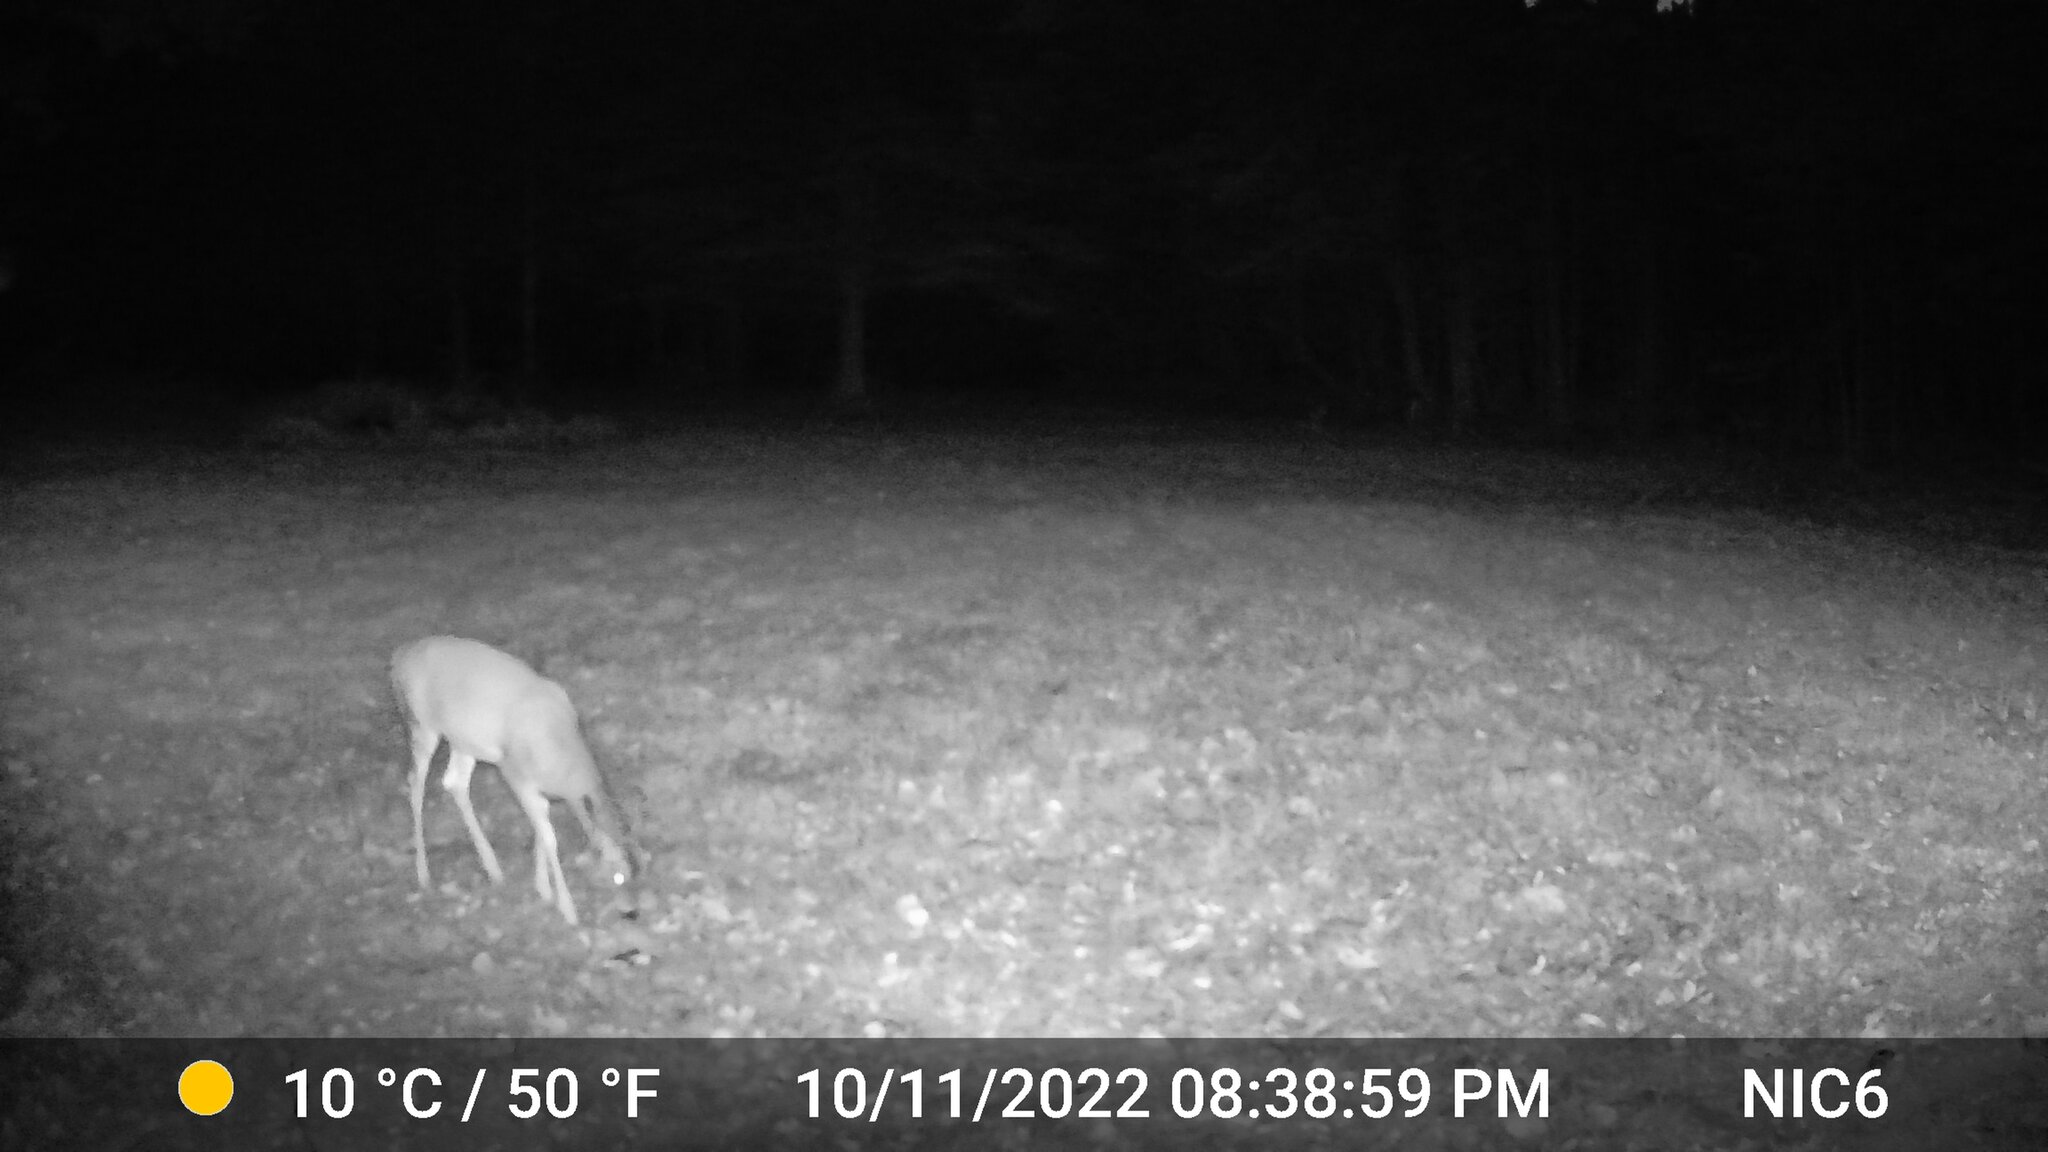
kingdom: Animalia
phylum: Chordata
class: Mammalia
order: Artiodactyla
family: Cervidae
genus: Odocoileus
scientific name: Odocoileus virginianus
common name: White-tailed deer
